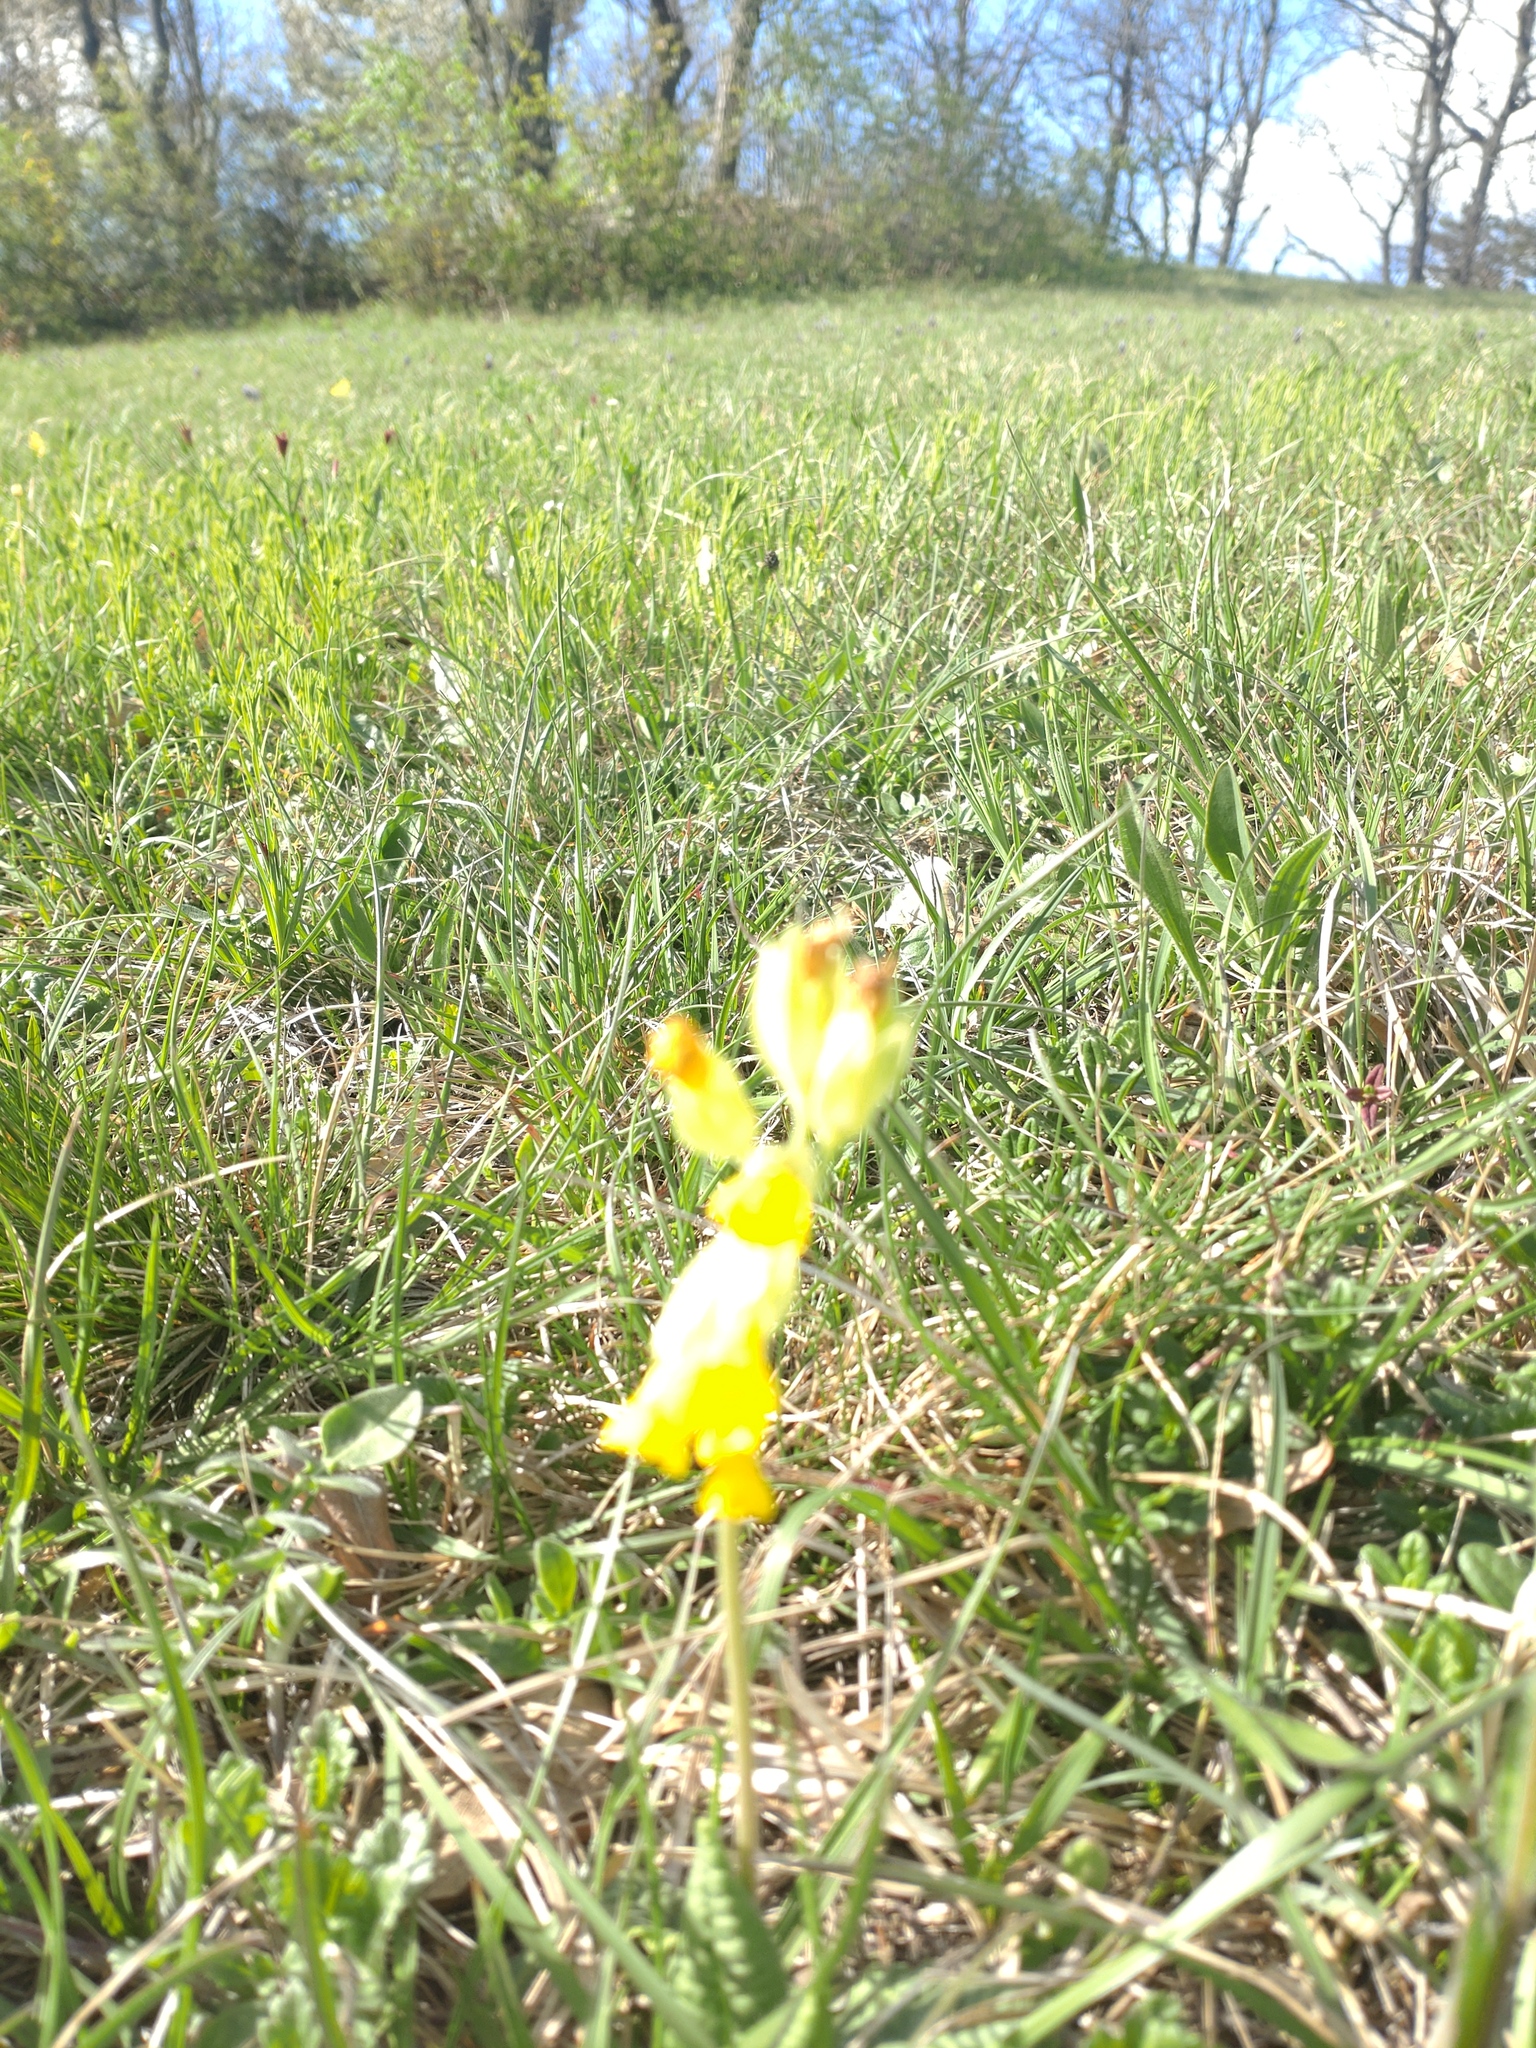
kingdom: Plantae
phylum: Tracheophyta
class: Magnoliopsida
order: Ericales
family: Primulaceae
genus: Primula
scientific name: Primula veris
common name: Cowslip
